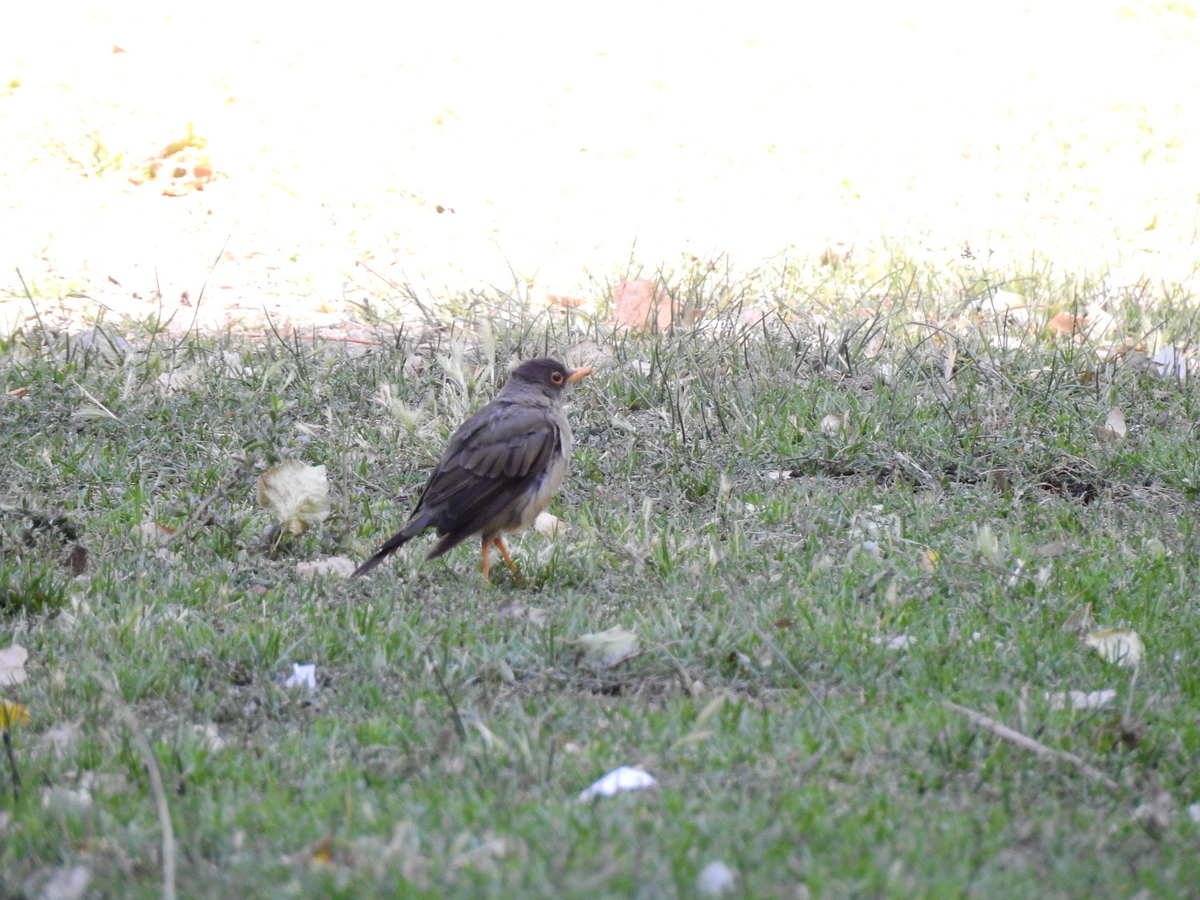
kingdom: Animalia
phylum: Chordata
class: Aves
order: Passeriformes
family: Turdidae
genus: Turdus
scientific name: Turdus falcklandii
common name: Austral thrush
